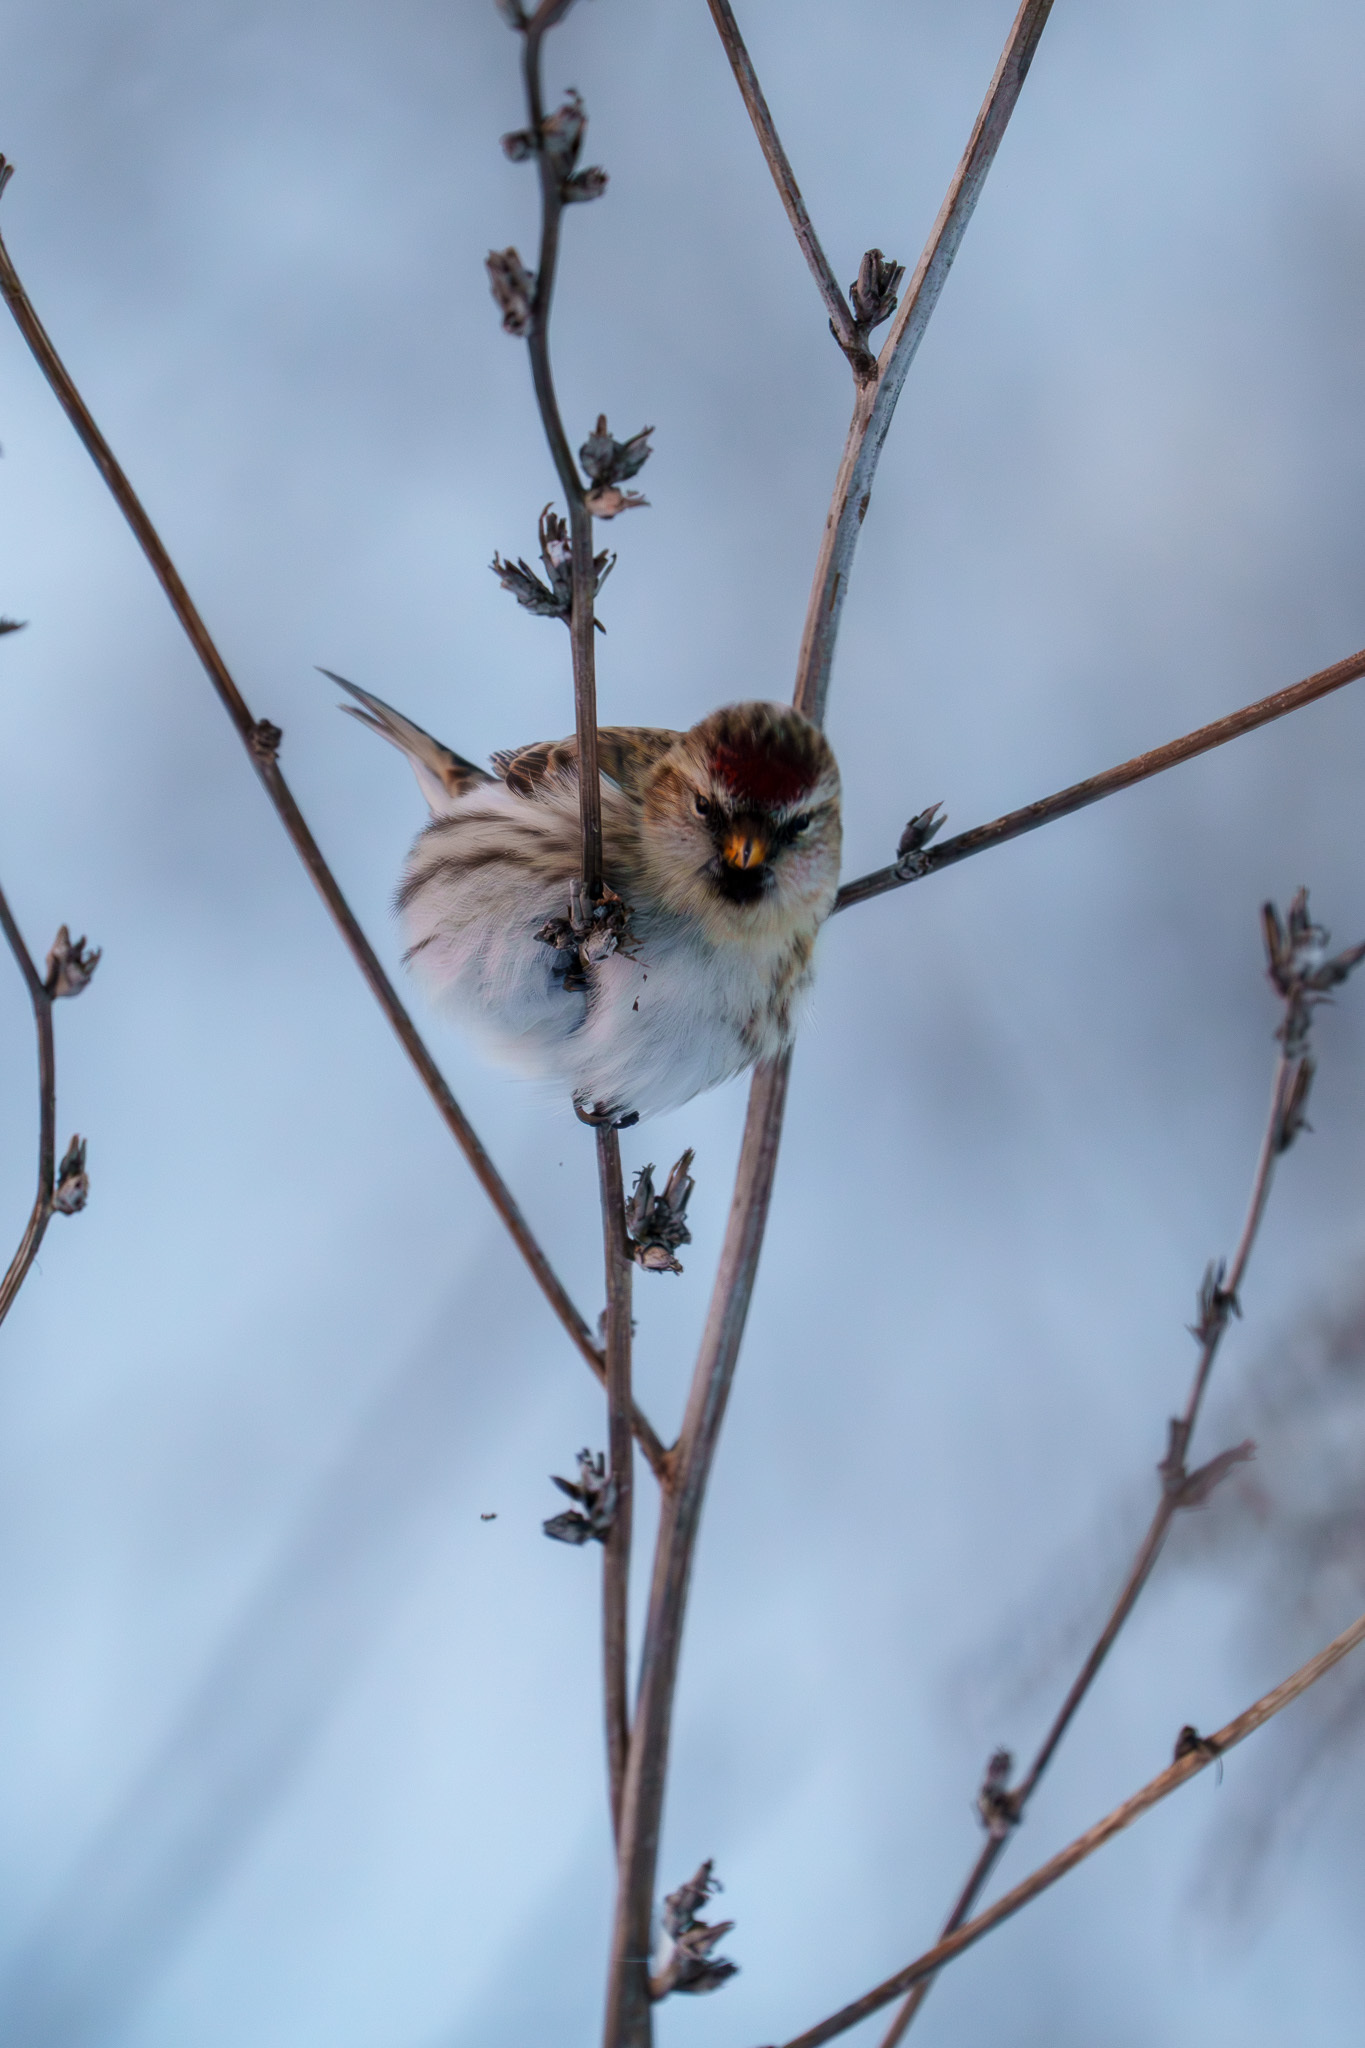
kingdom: Animalia
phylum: Chordata
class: Aves
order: Passeriformes
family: Fringillidae
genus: Acanthis
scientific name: Acanthis flammea
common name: Common redpoll
